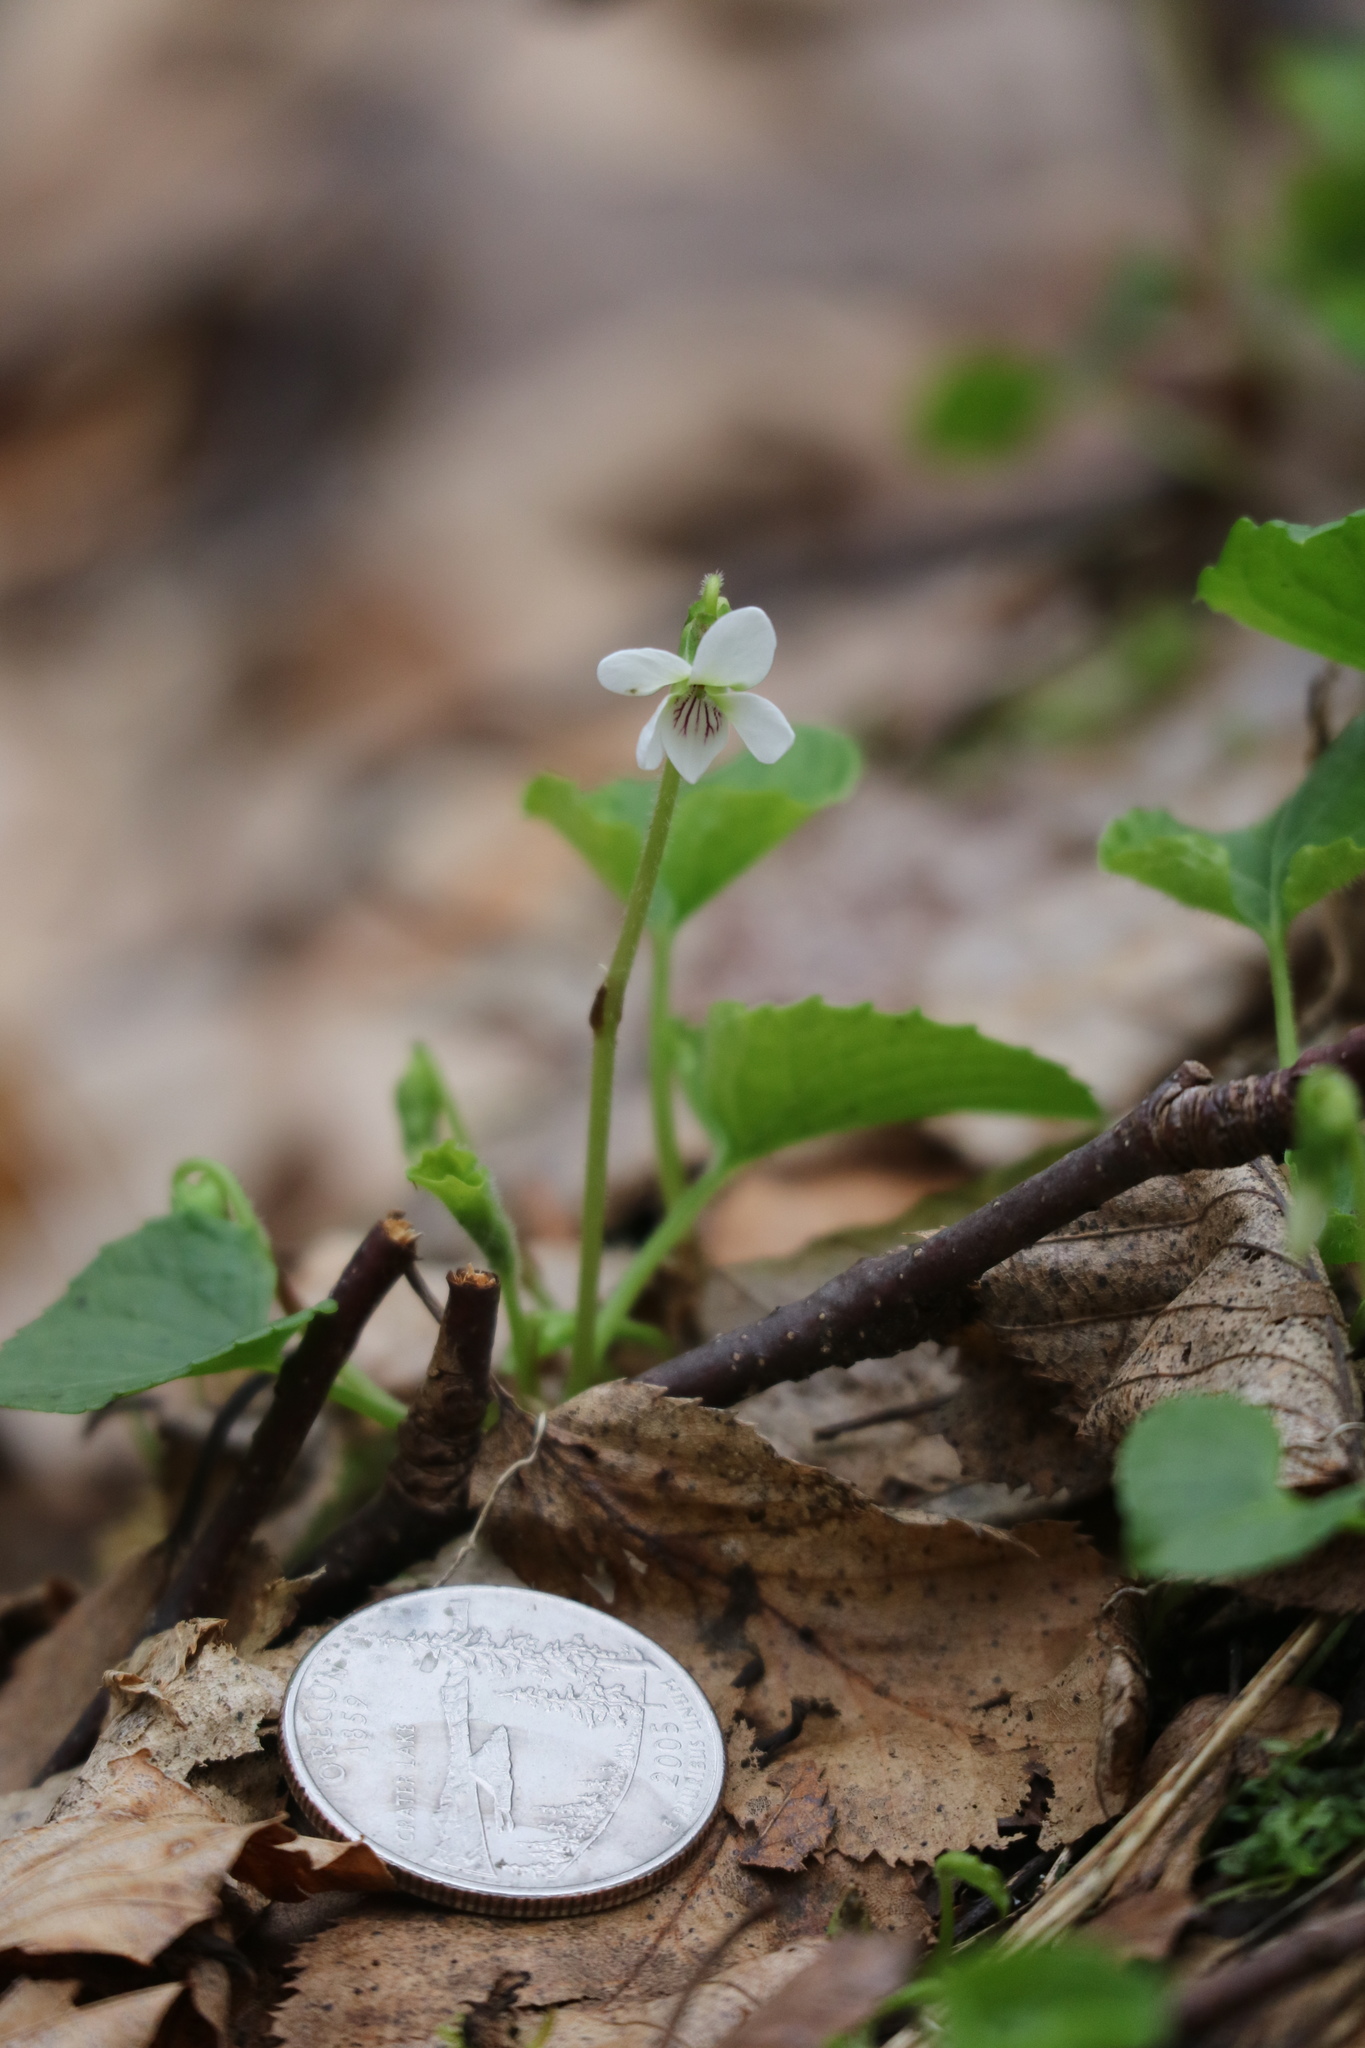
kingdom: Plantae
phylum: Tracheophyta
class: Magnoliopsida
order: Malpighiales
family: Violaceae
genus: Viola
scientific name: Viola blanda
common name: Sweet white violet
